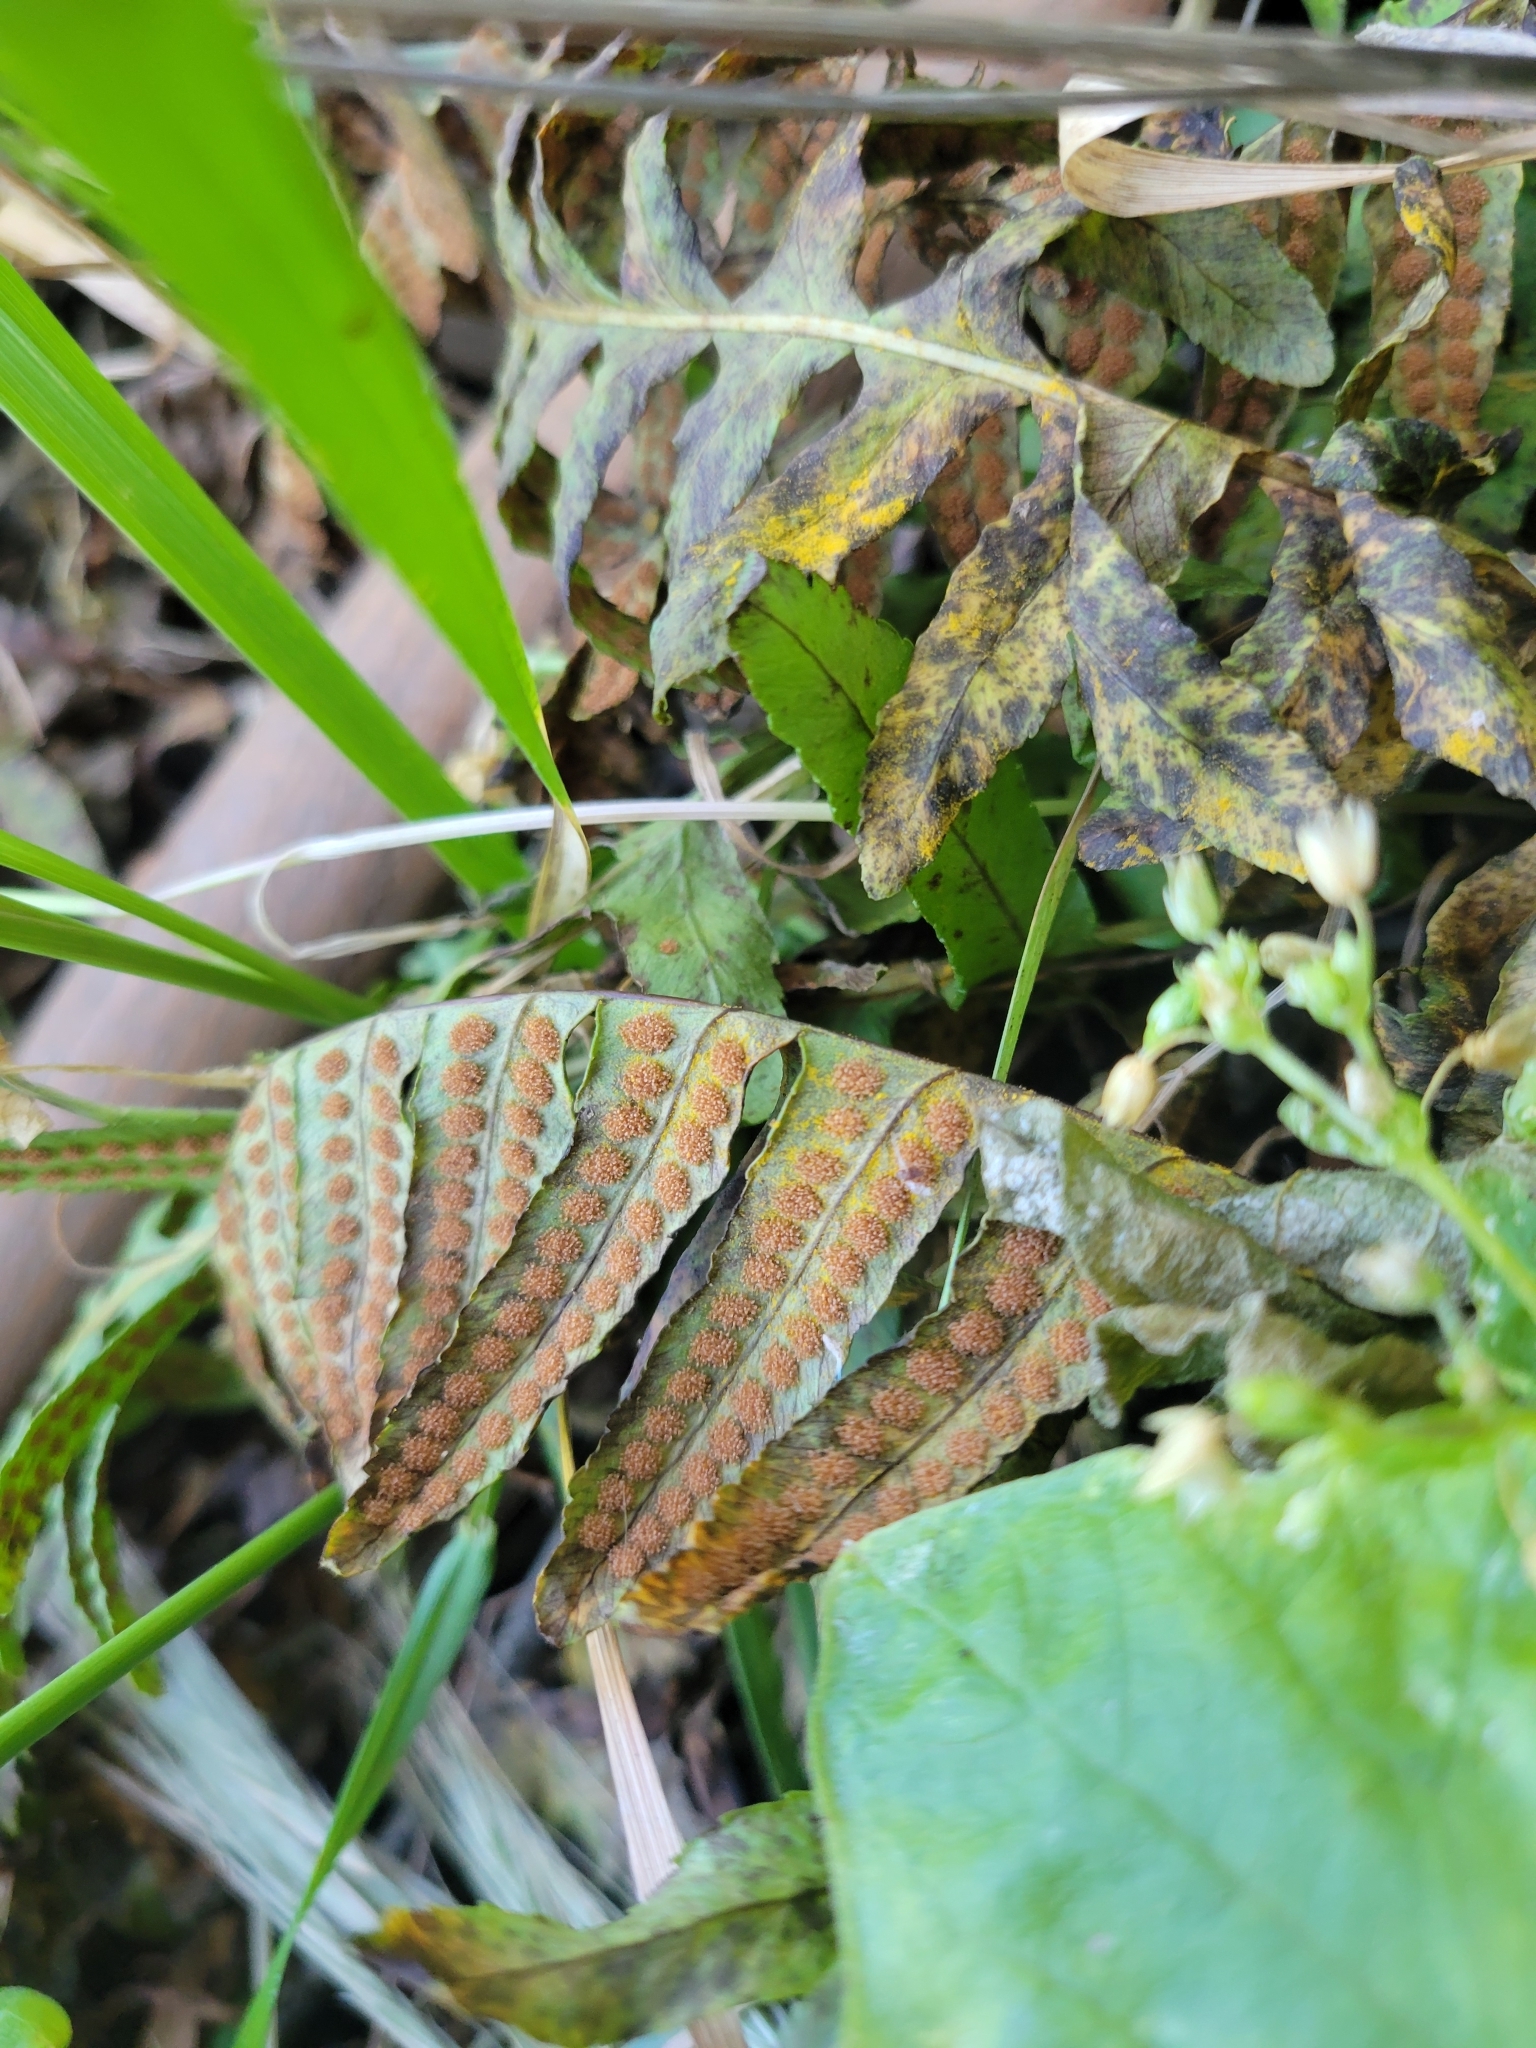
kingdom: Plantae
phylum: Tracheophyta
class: Polypodiopsida
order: Polypodiales
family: Polypodiaceae
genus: Polypodium
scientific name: Polypodium californicum
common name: California polypody
